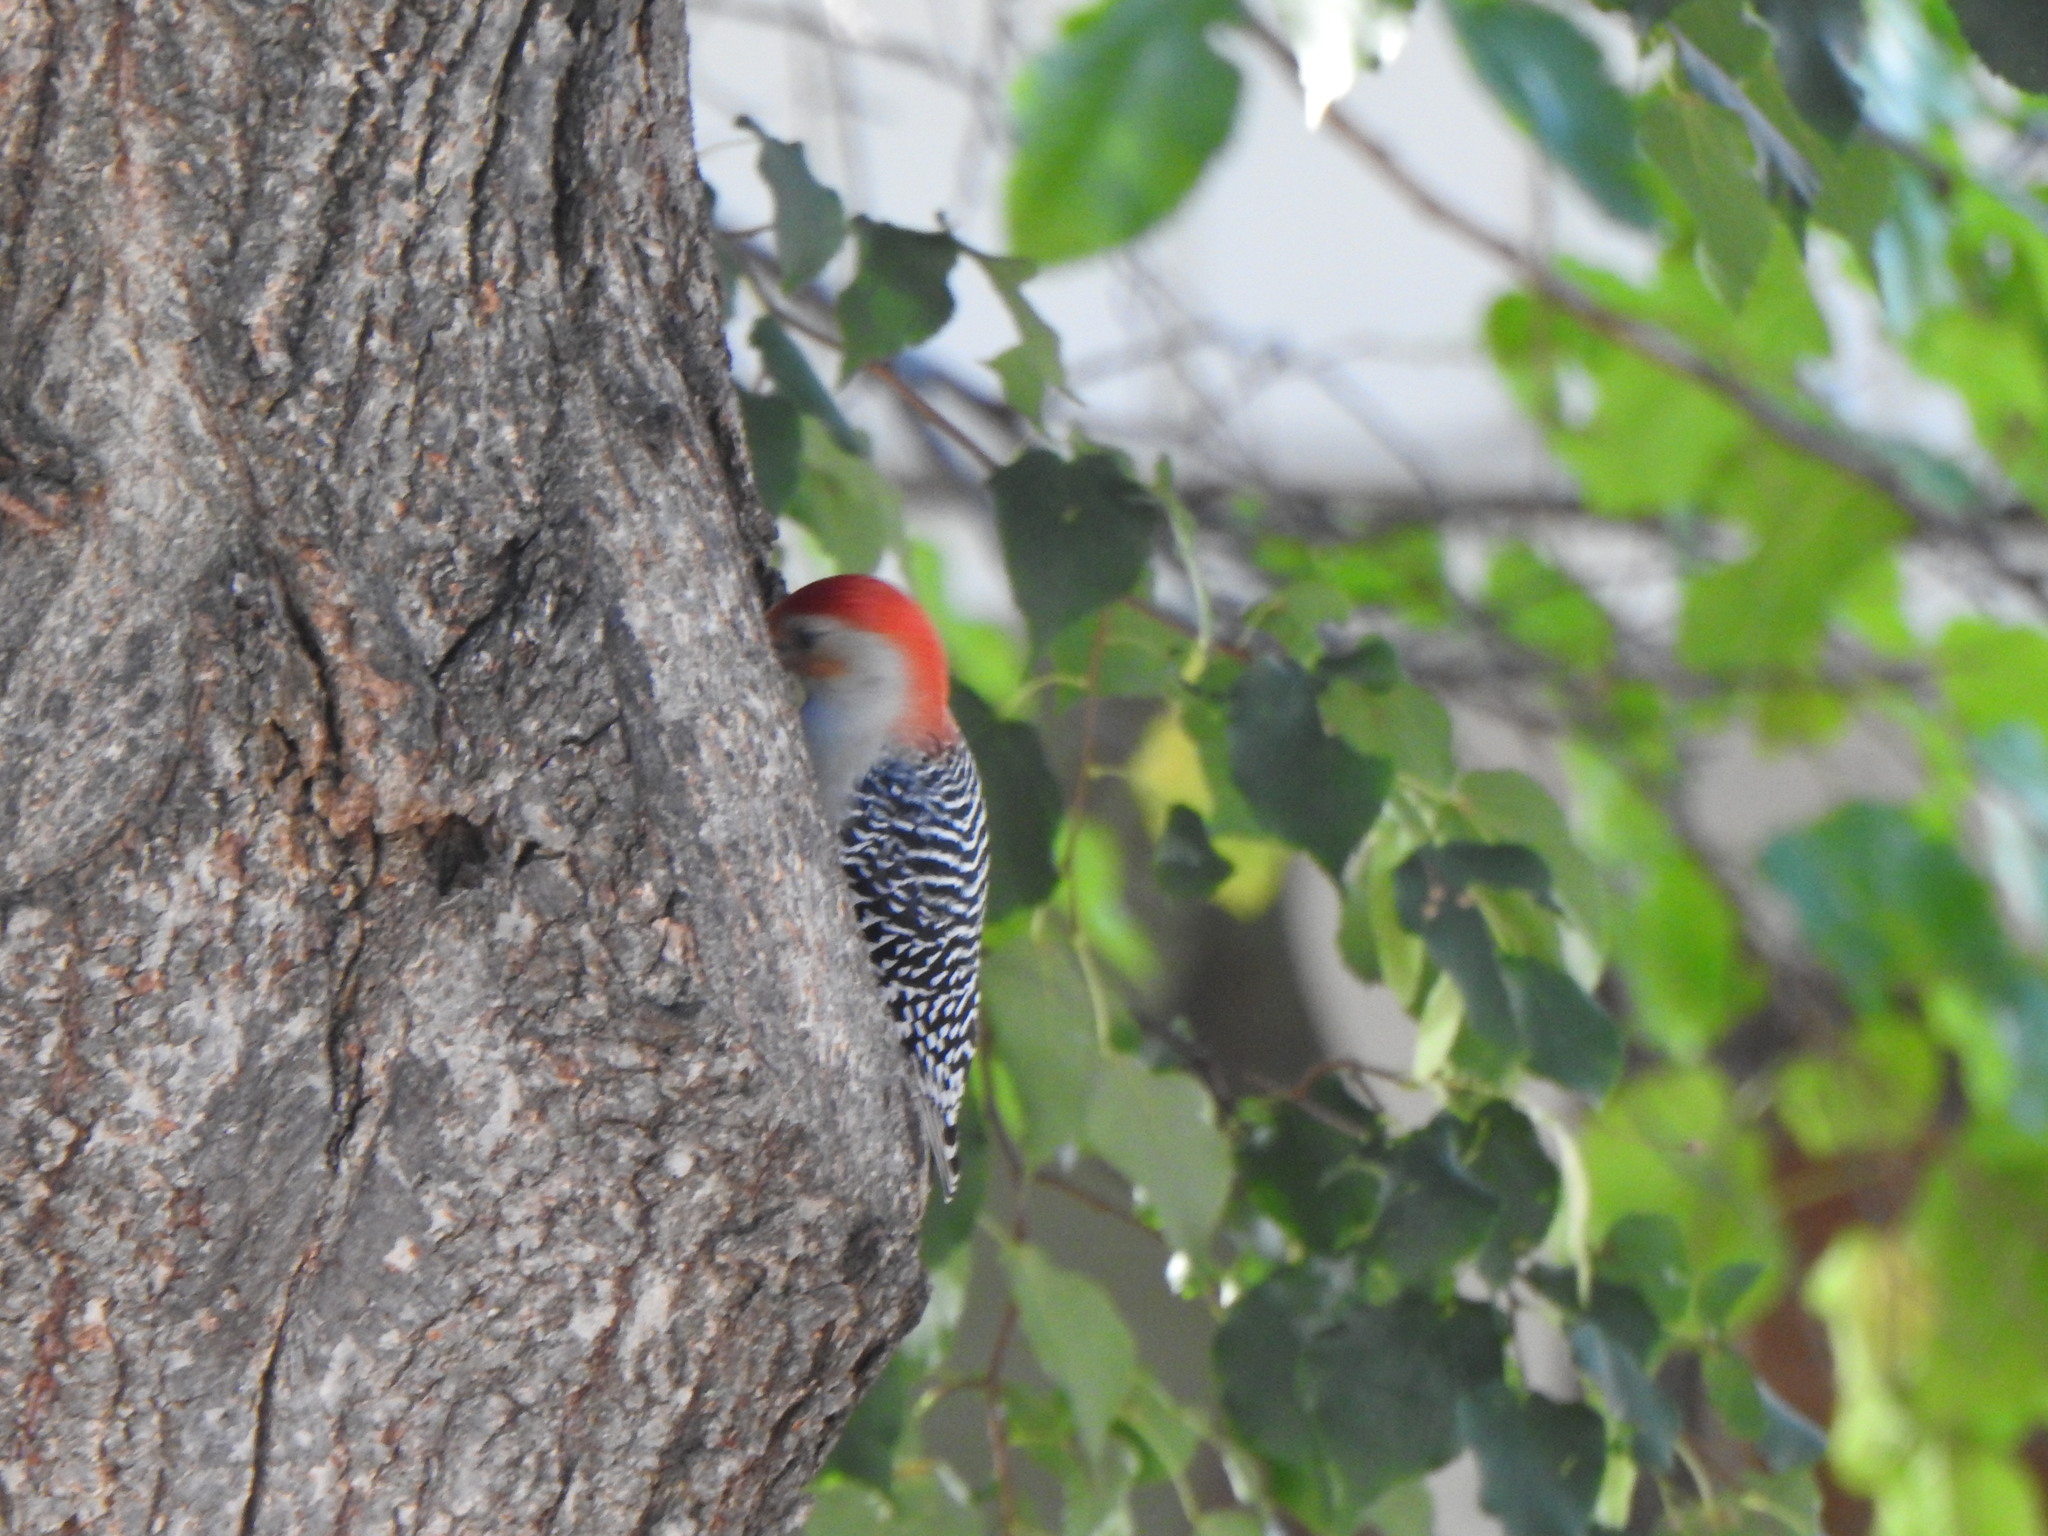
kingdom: Animalia
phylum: Chordata
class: Aves
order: Piciformes
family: Picidae
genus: Melanerpes
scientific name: Melanerpes carolinus
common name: Red-bellied woodpecker
